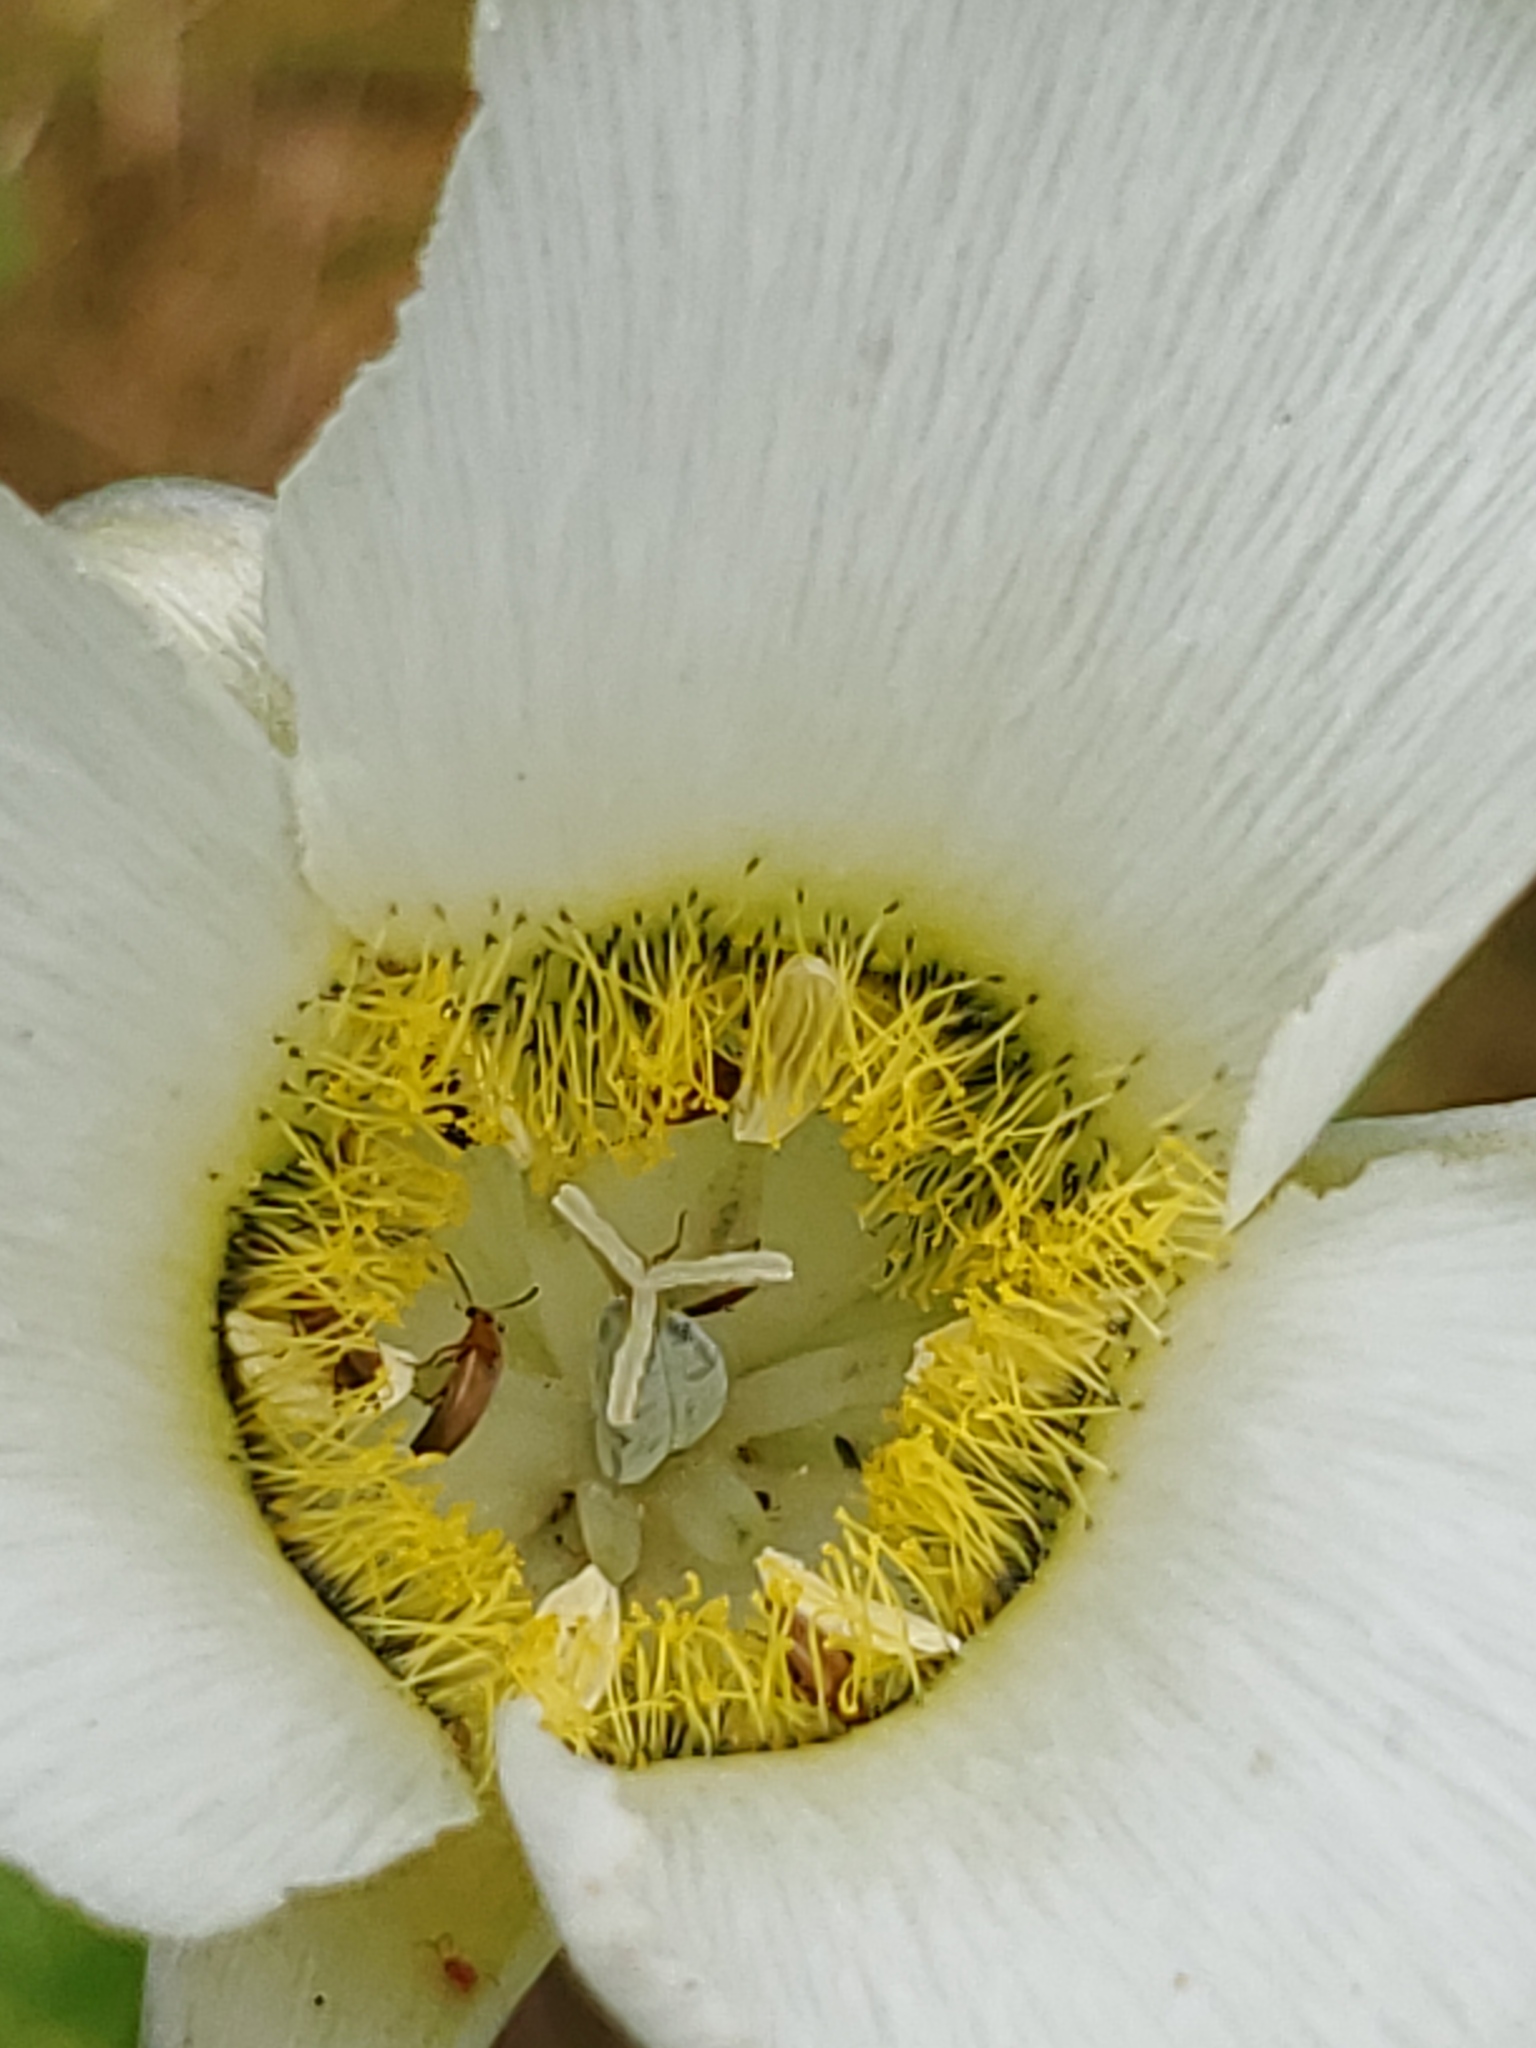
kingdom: Plantae
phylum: Tracheophyta
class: Liliopsida
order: Liliales
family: Liliaceae
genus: Calochortus
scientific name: Calochortus gunnisonii
